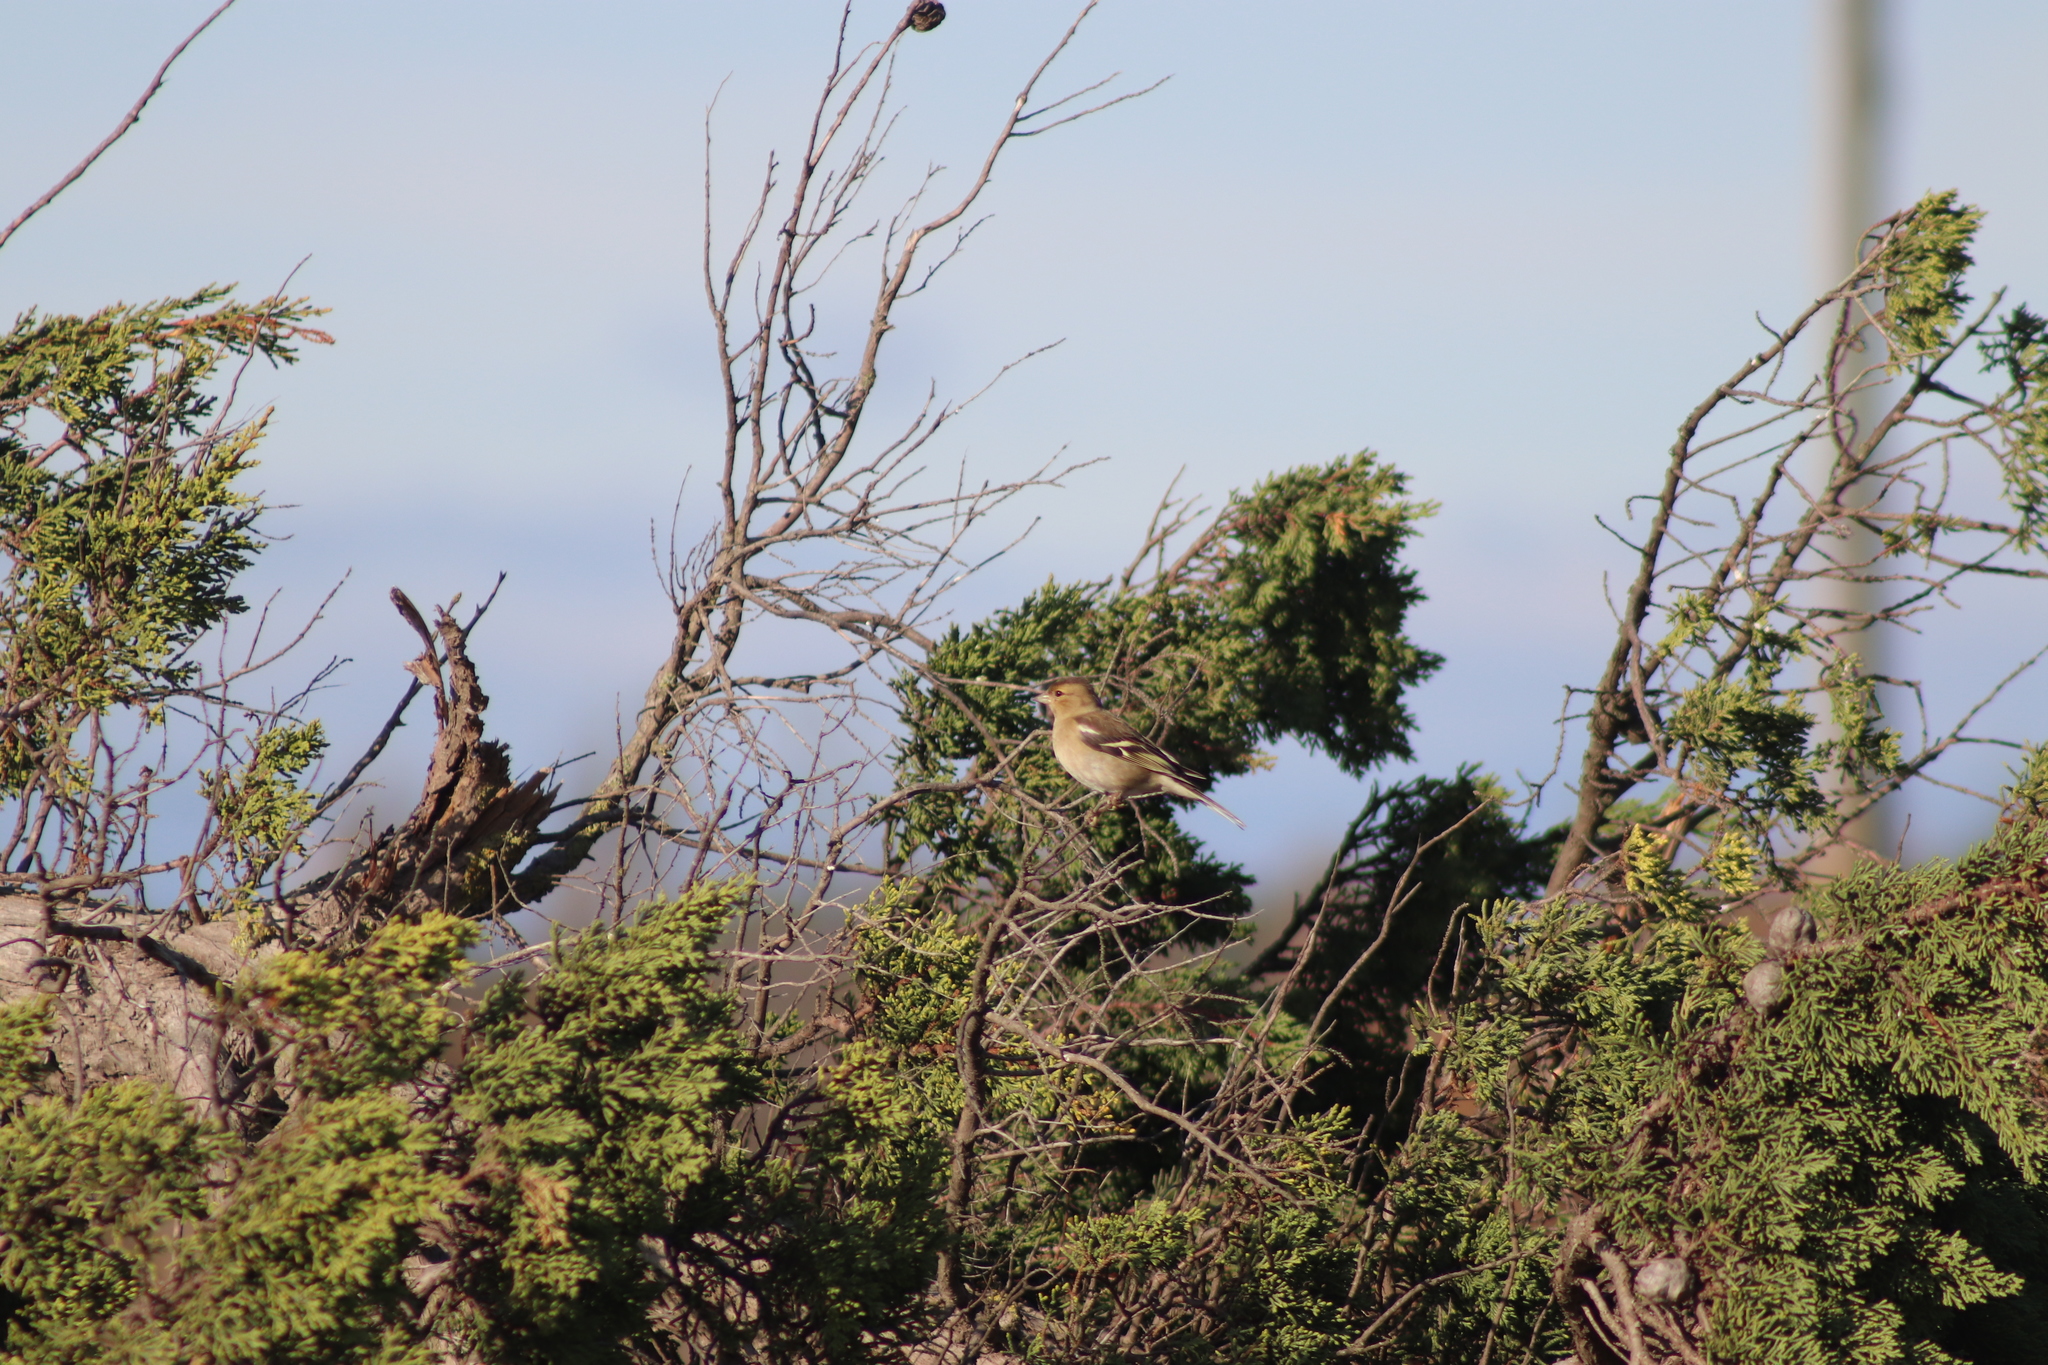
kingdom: Animalia
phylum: Chordata
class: Aves
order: Passeriformes
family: Fringillidae
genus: Fringilla
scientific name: Fringilla coelebs
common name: Common chaffinch
